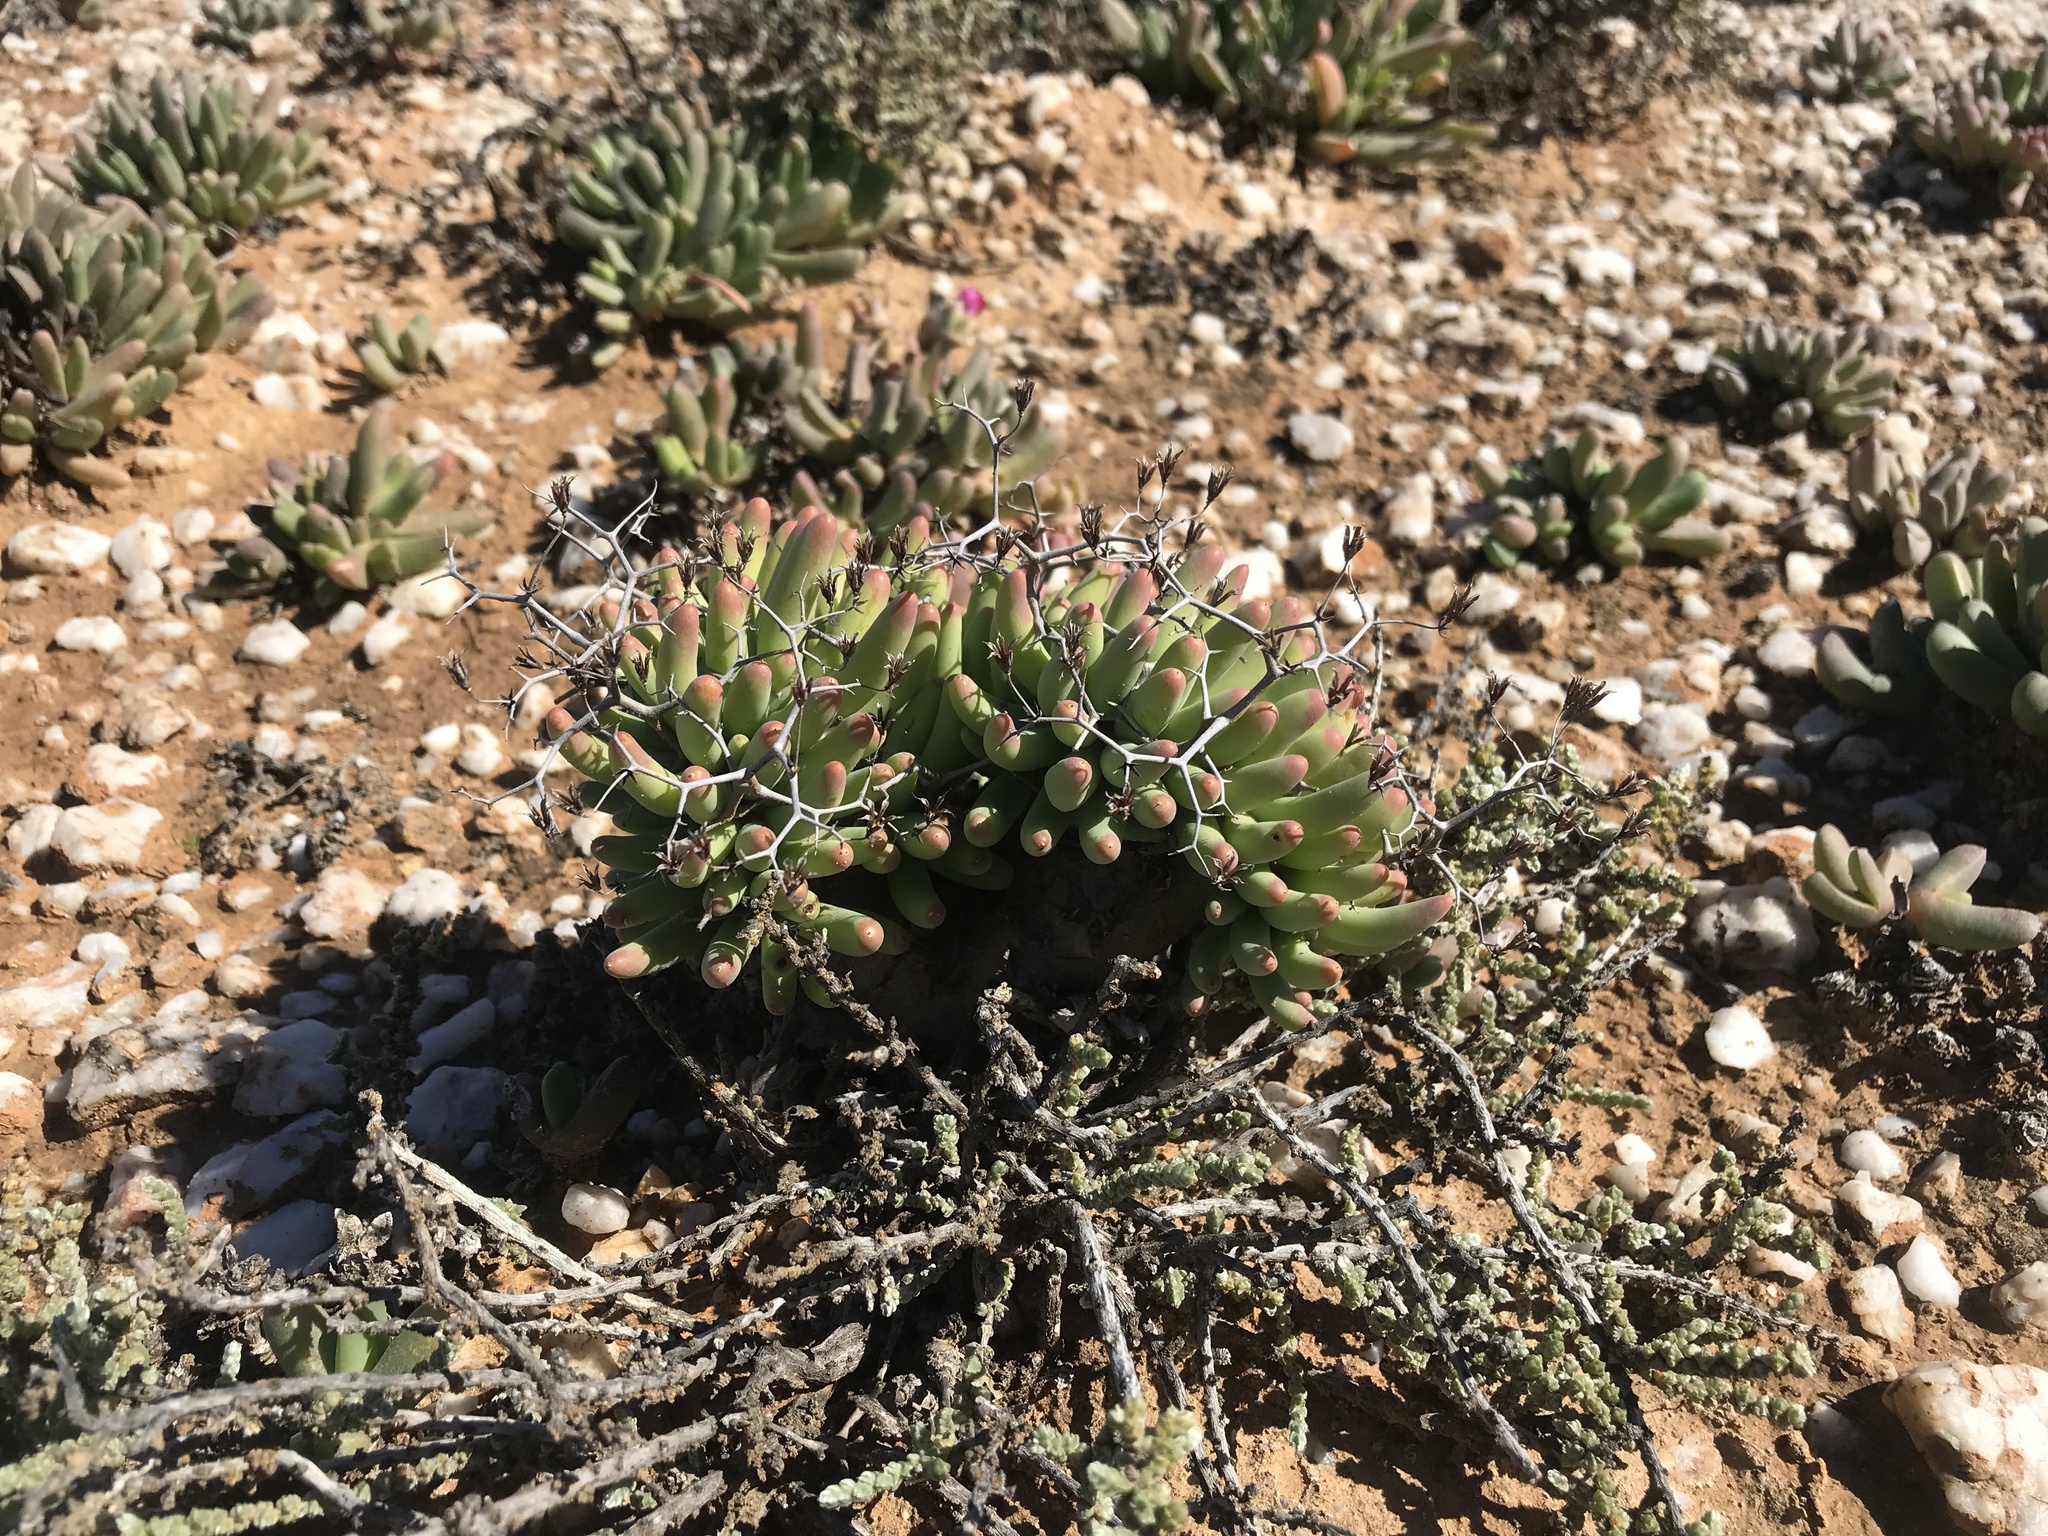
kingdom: Plantae
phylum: Tracheophyta
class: Magnoliopsida
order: Saxifragales
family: Crassulaceae
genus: Tylecodon
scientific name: Tylecodon reticulatus
